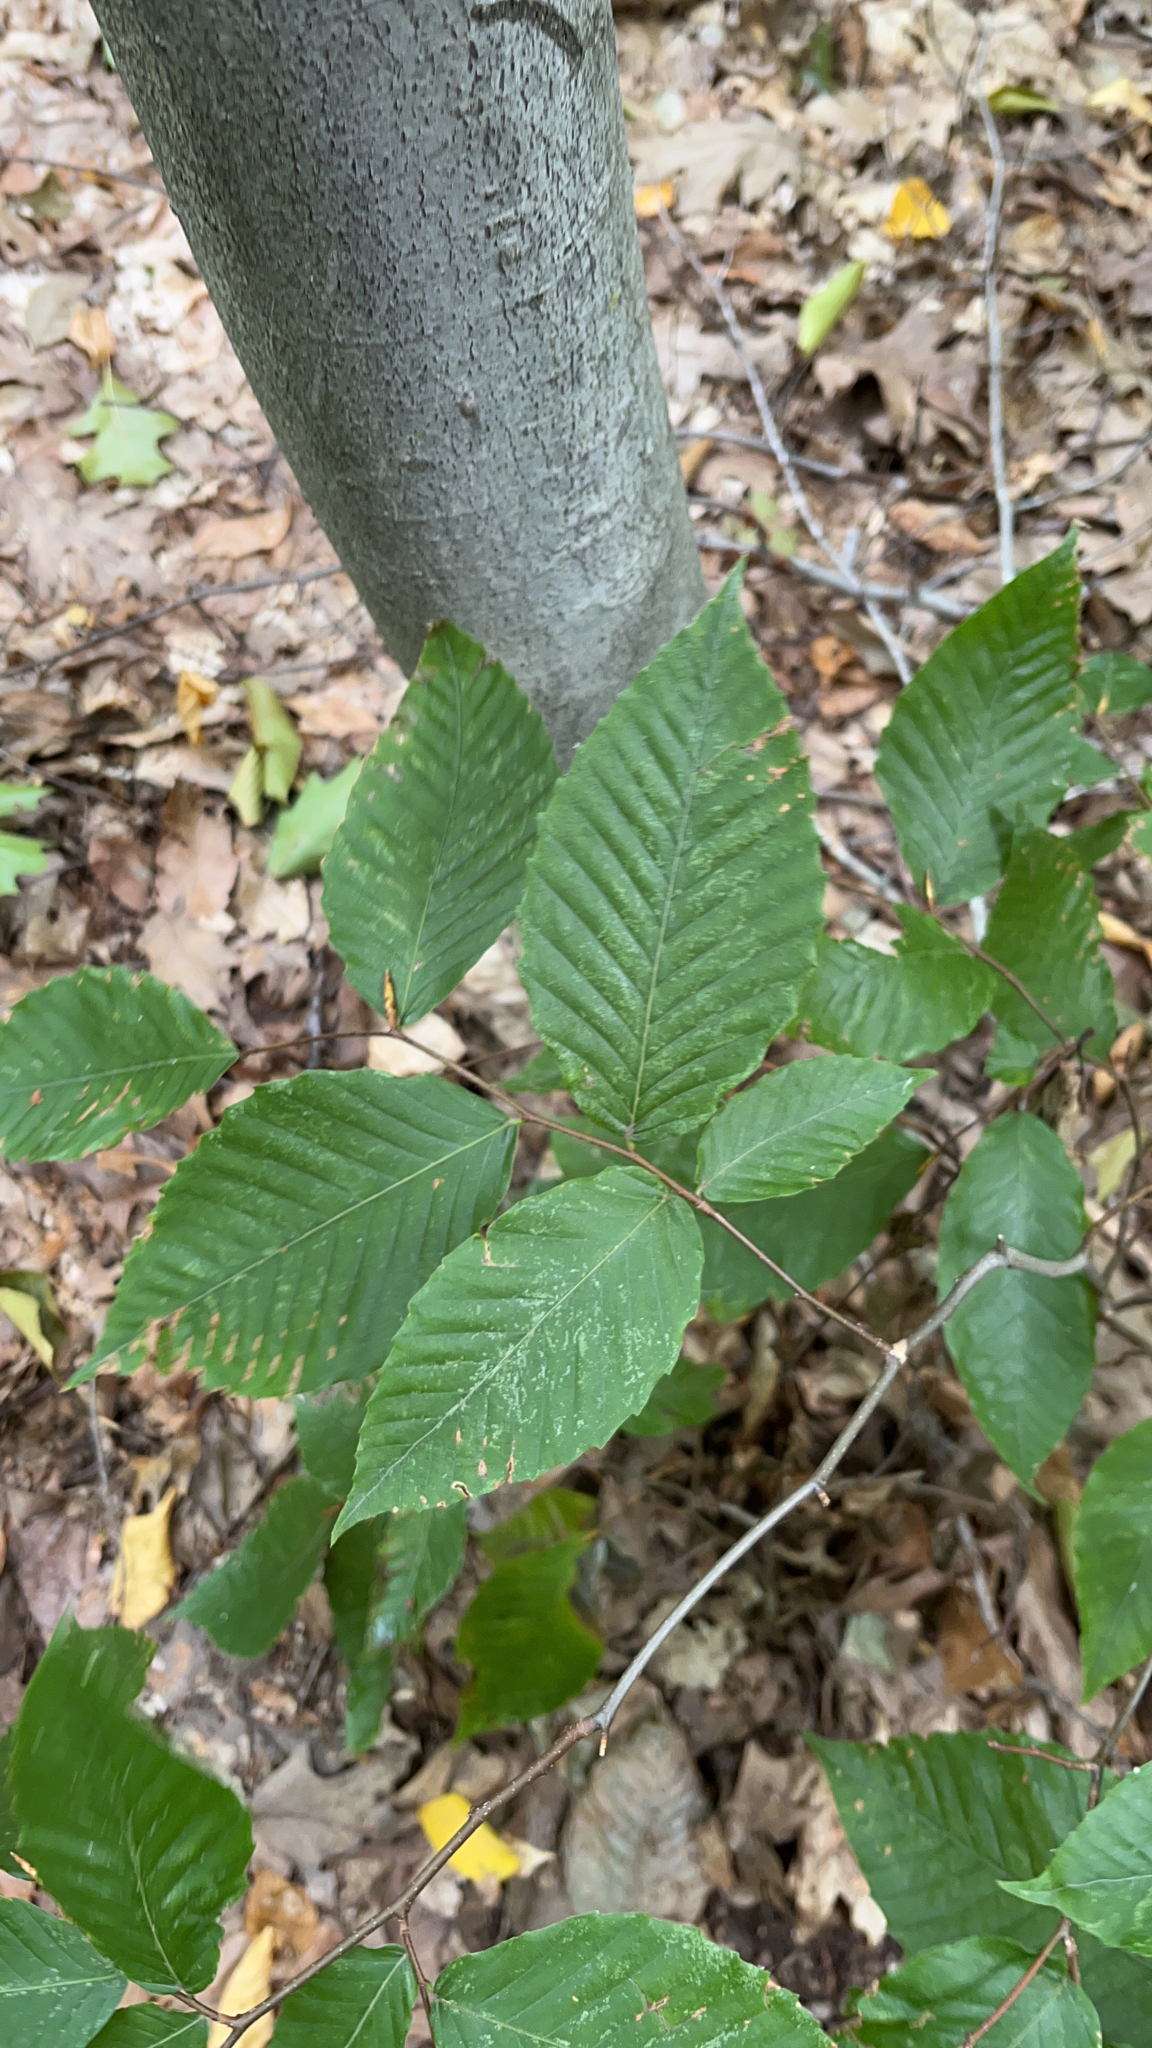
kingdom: Plantae
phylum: Tracheophyta
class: Magnoliopsida
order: Fagales
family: Fagaceae
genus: Fagus
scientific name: Fagus grandifolia
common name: American beech
